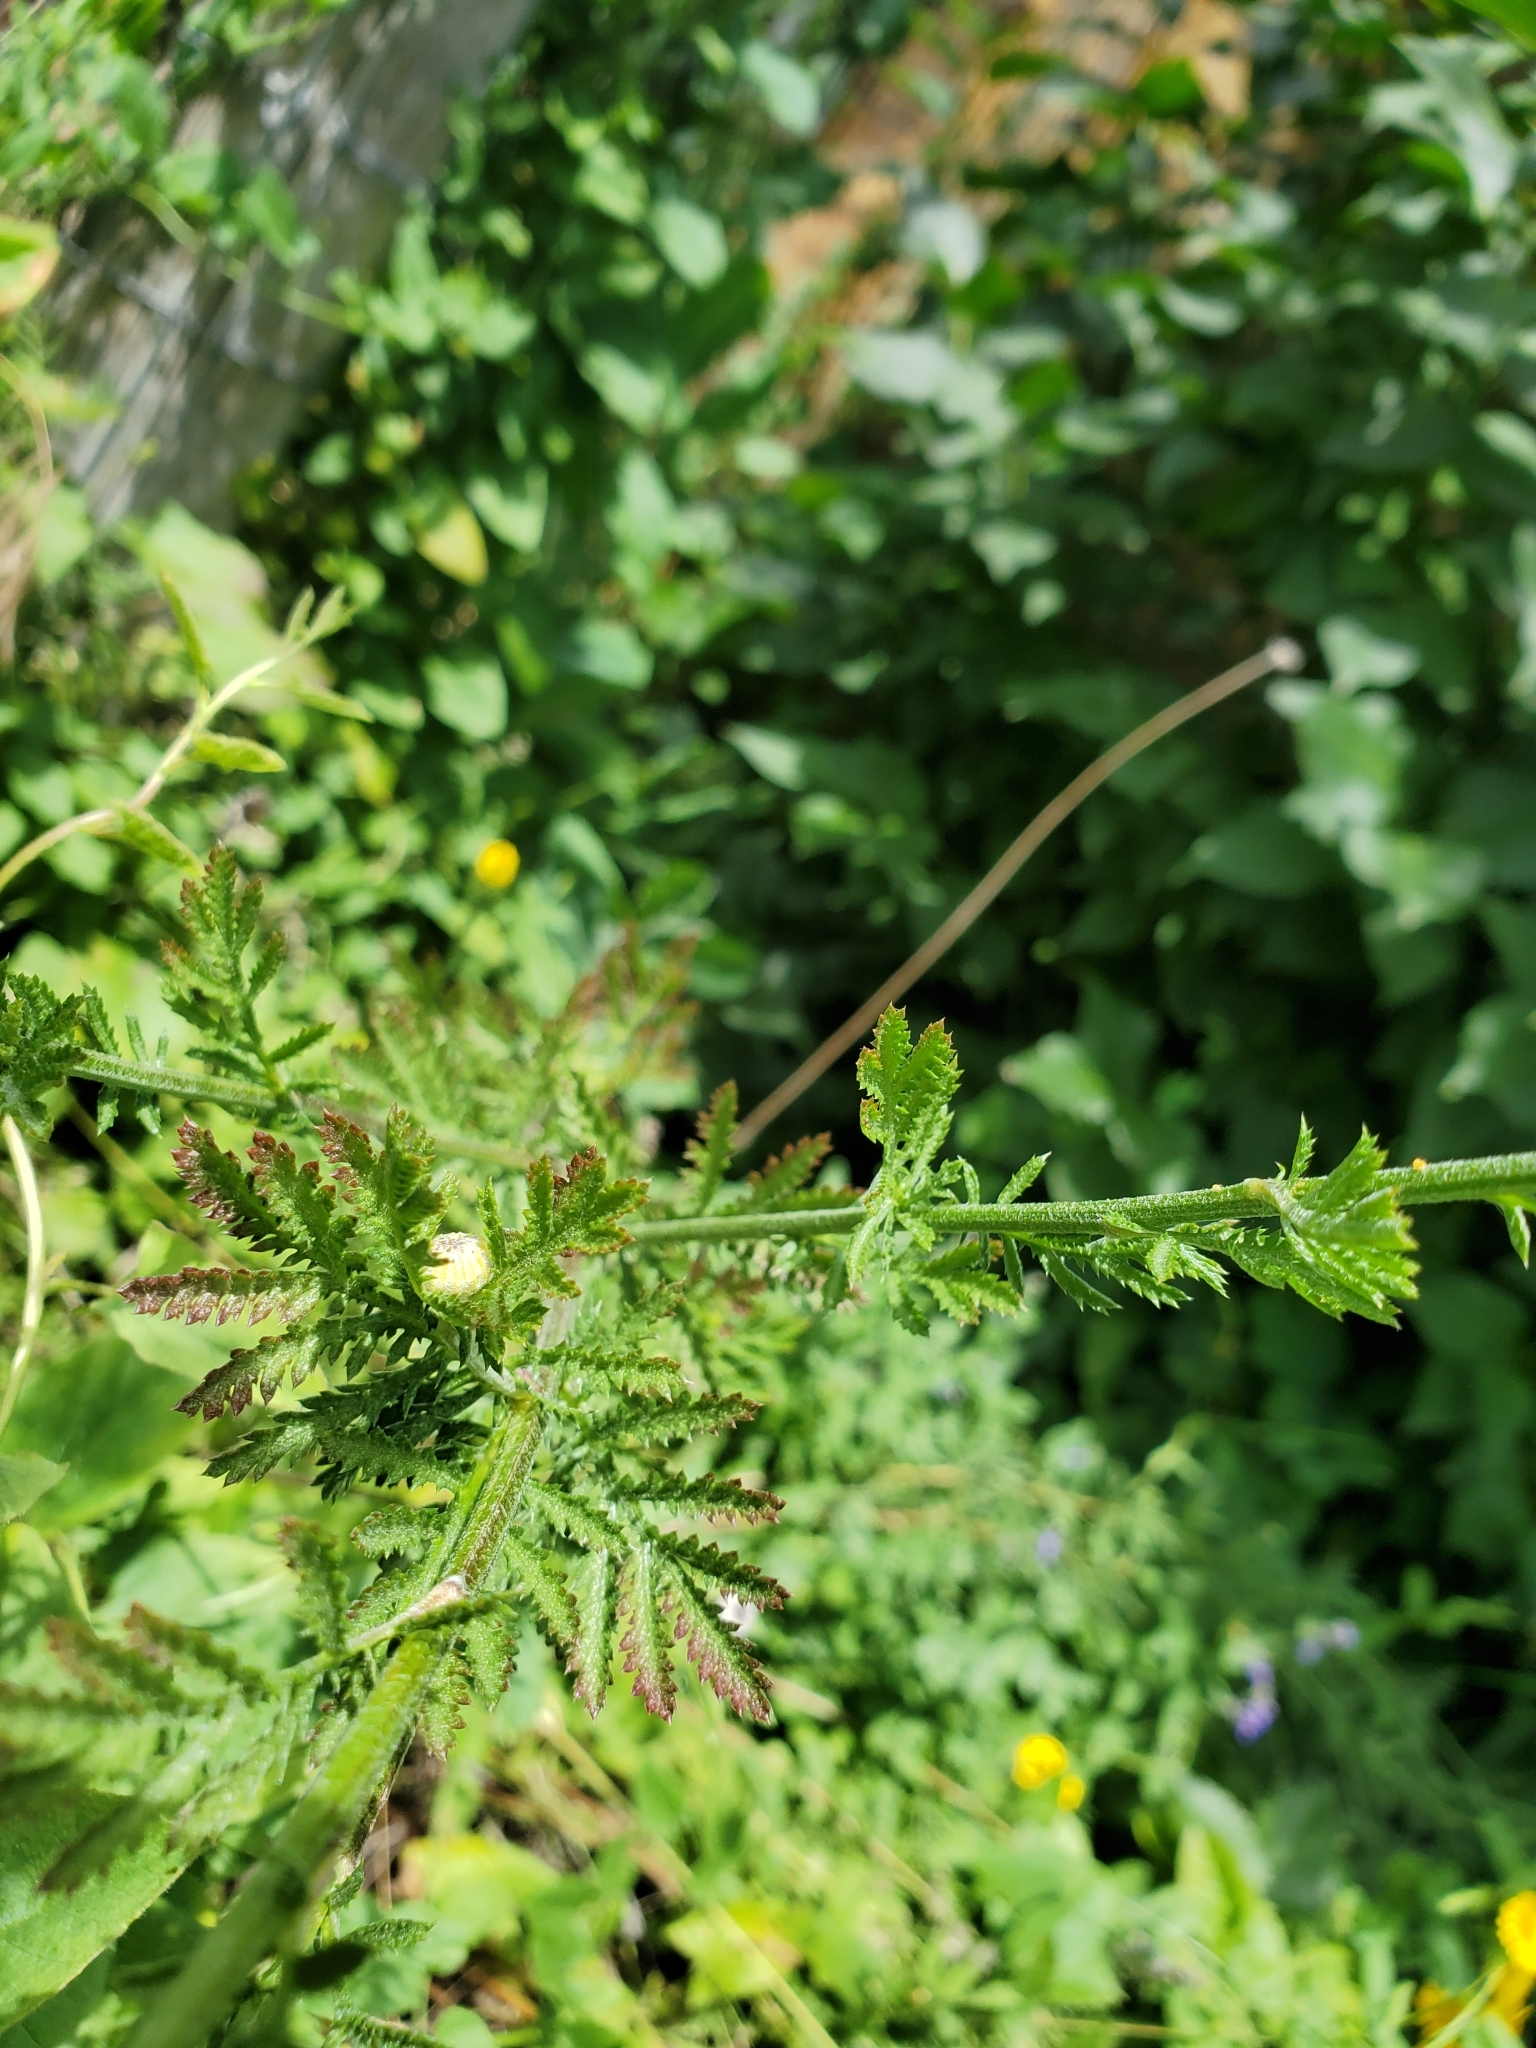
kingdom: Plantae
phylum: Tracheophyta
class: Magnoliopsida
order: Asterales
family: Asteraceae
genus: Cota
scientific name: Cota tinctoria
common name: Golden chamomile
